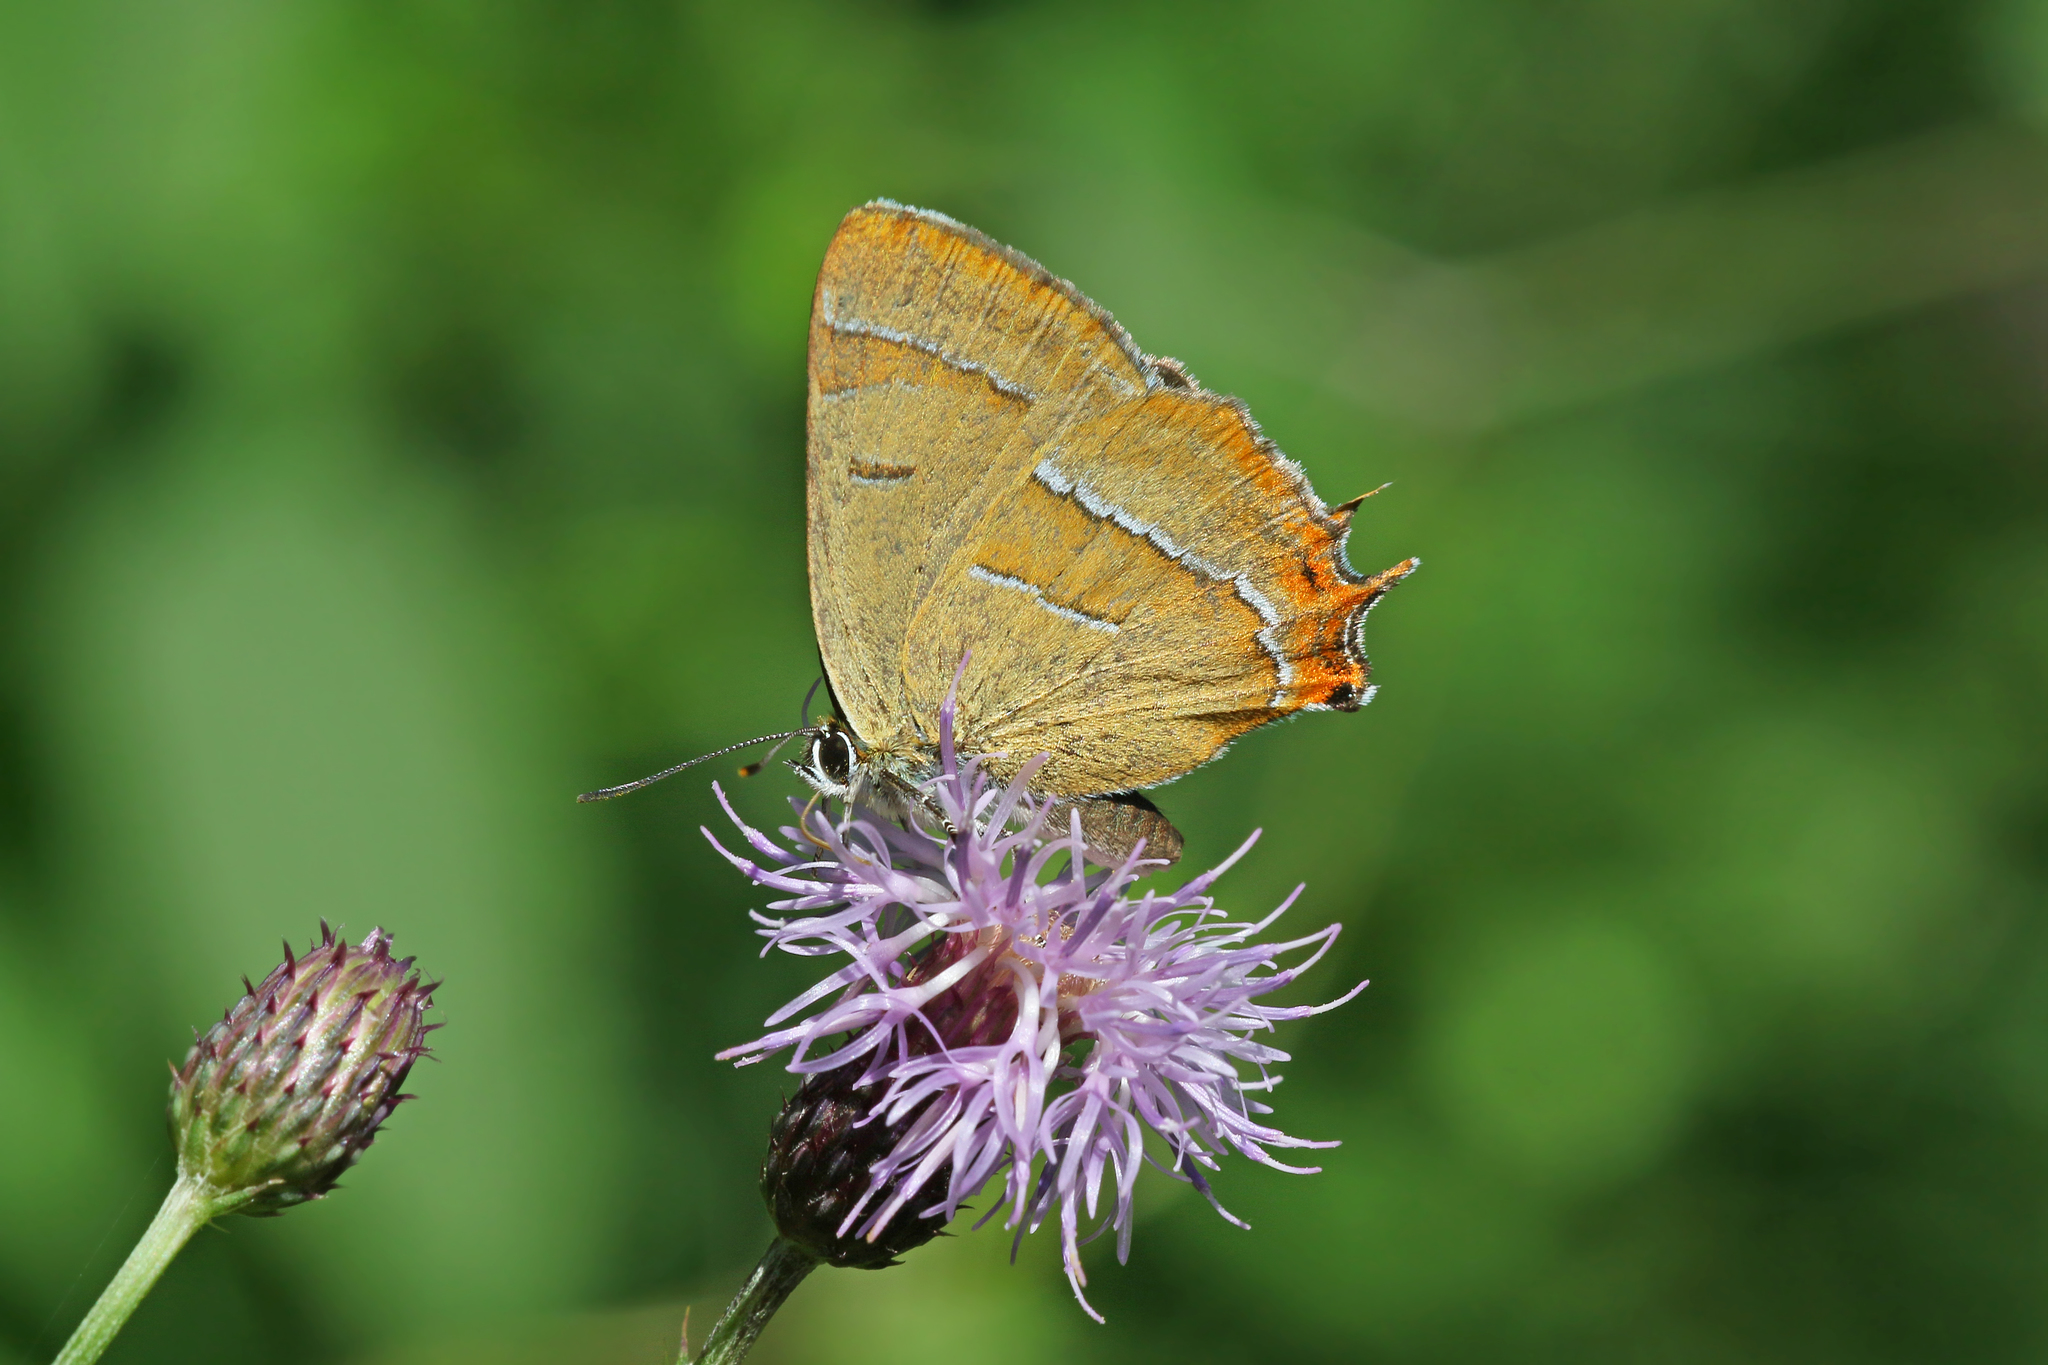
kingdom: Animalia
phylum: Arthropoda
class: Insecta
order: Lepidoptera
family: Lycaenidae
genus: Thecla
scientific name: Thecla betulae
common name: Brown hairstreak
